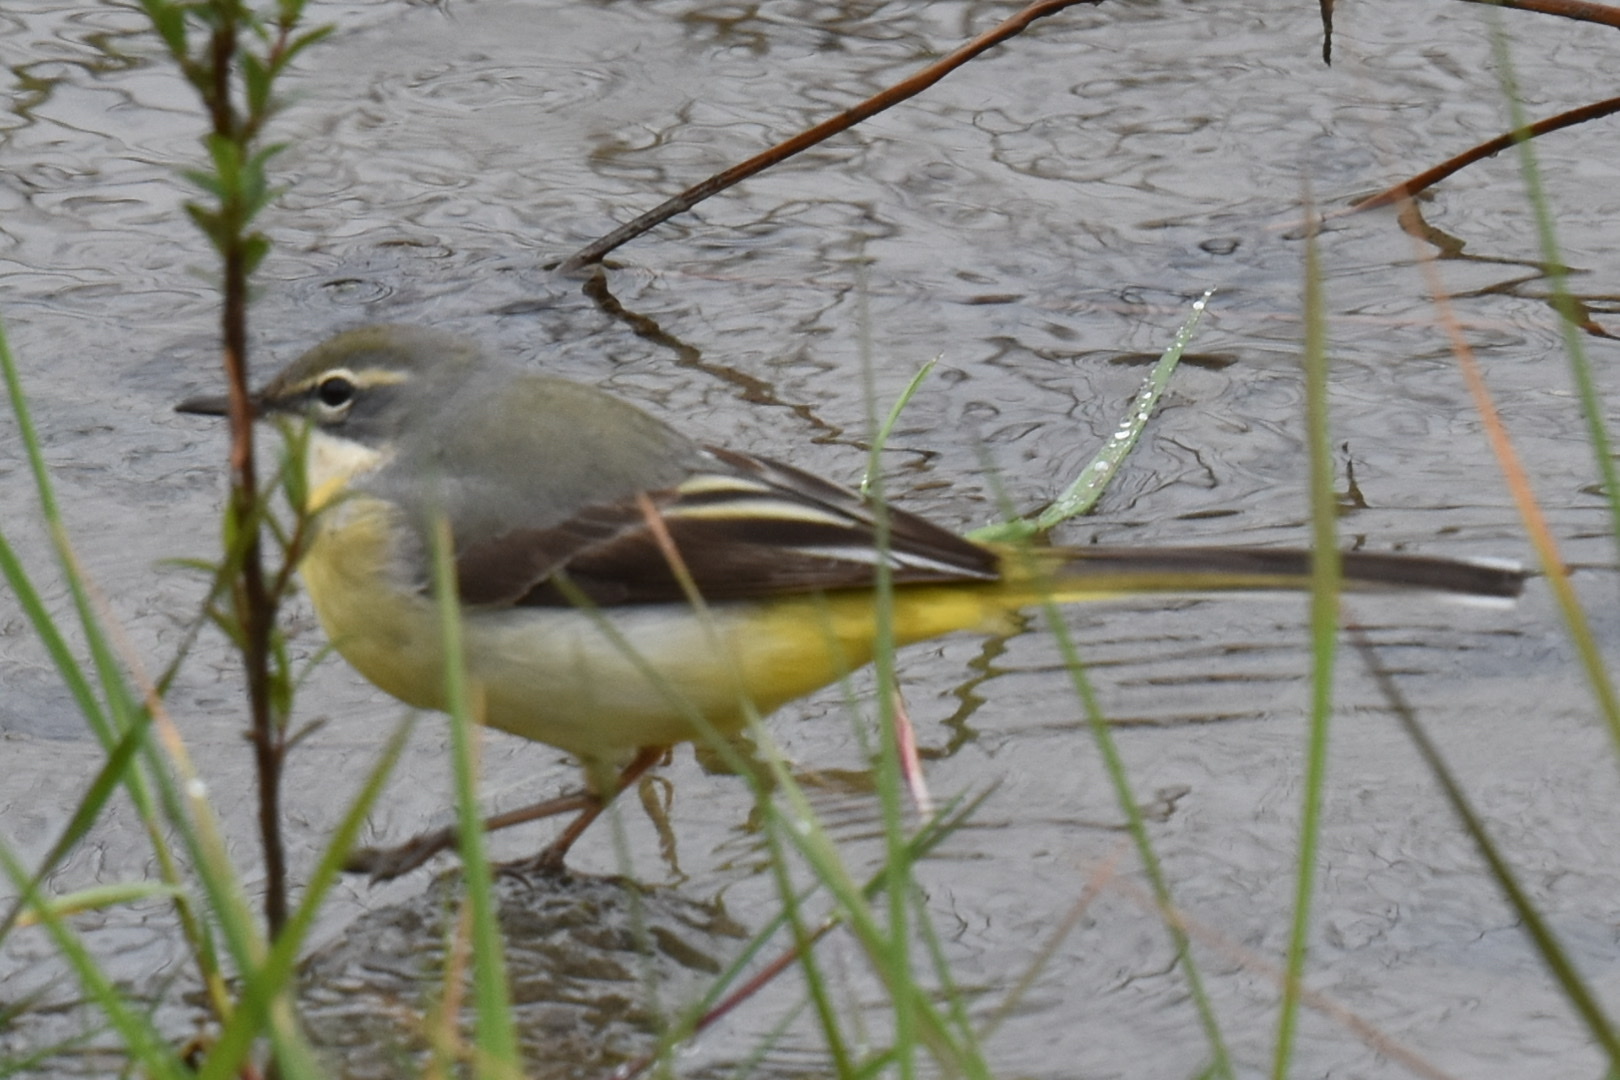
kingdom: Animalia
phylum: Chordata
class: Aves
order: Passeriformes
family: Motacillidae
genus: Motacilla
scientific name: Motacilla cinerea
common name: Grey wagtail
